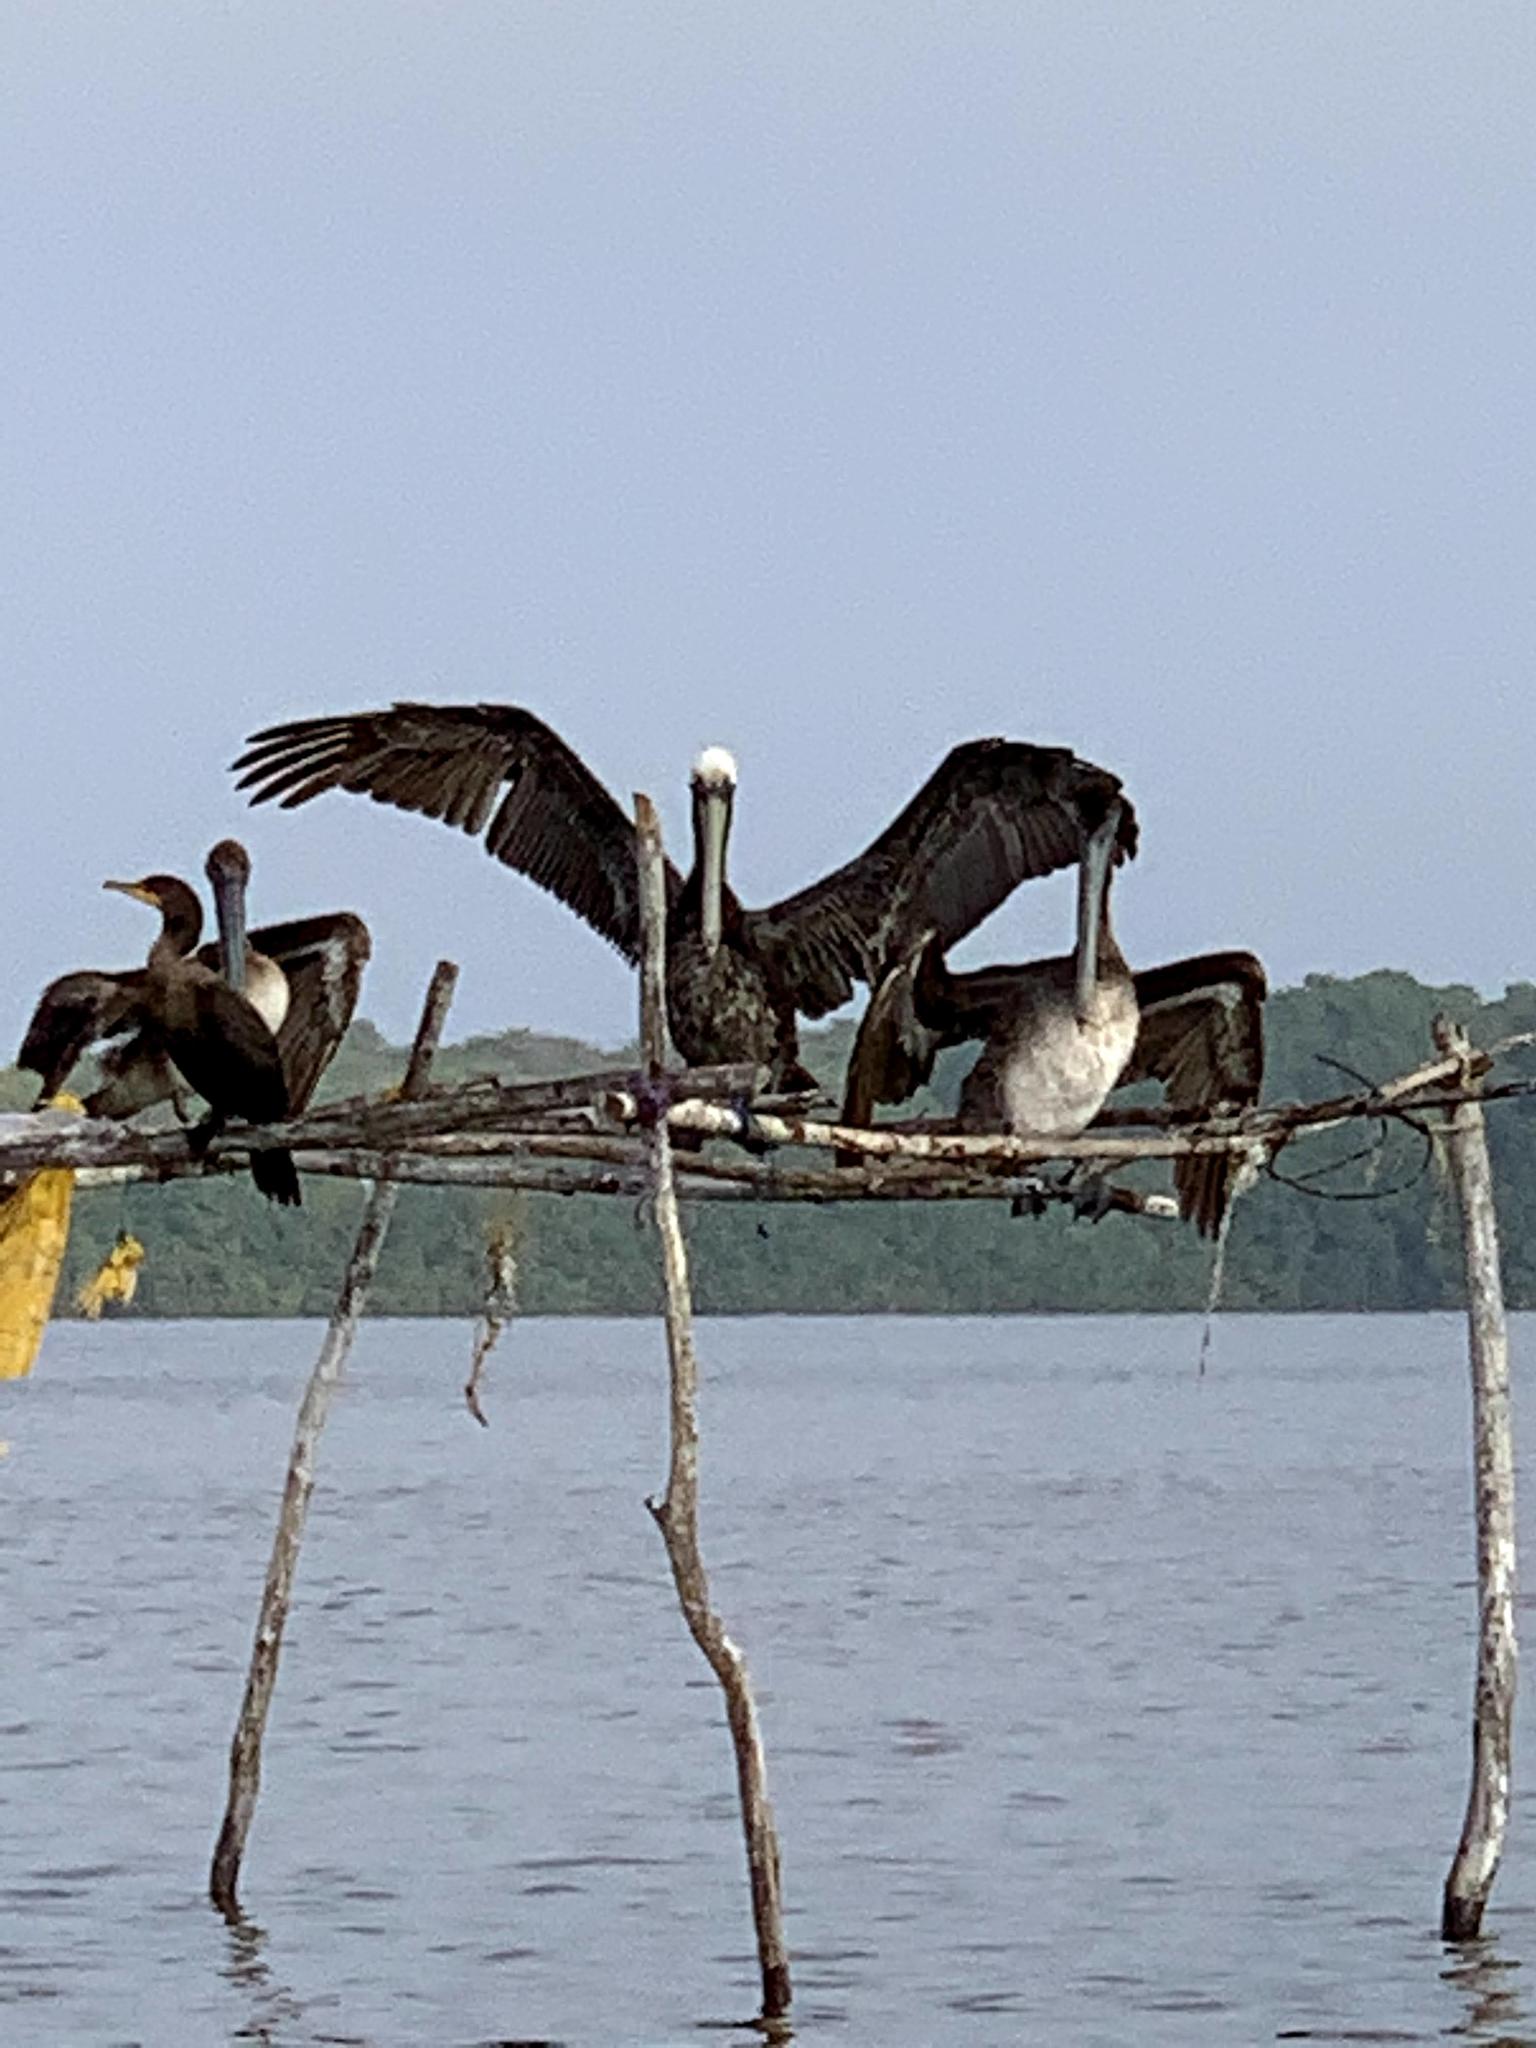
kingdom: Animalia
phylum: Chordata
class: Aves
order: Pelecaniformes
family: Pelecanidae
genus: Pelecanus
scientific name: Pelecanus occidentalis
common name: Brown pelican
